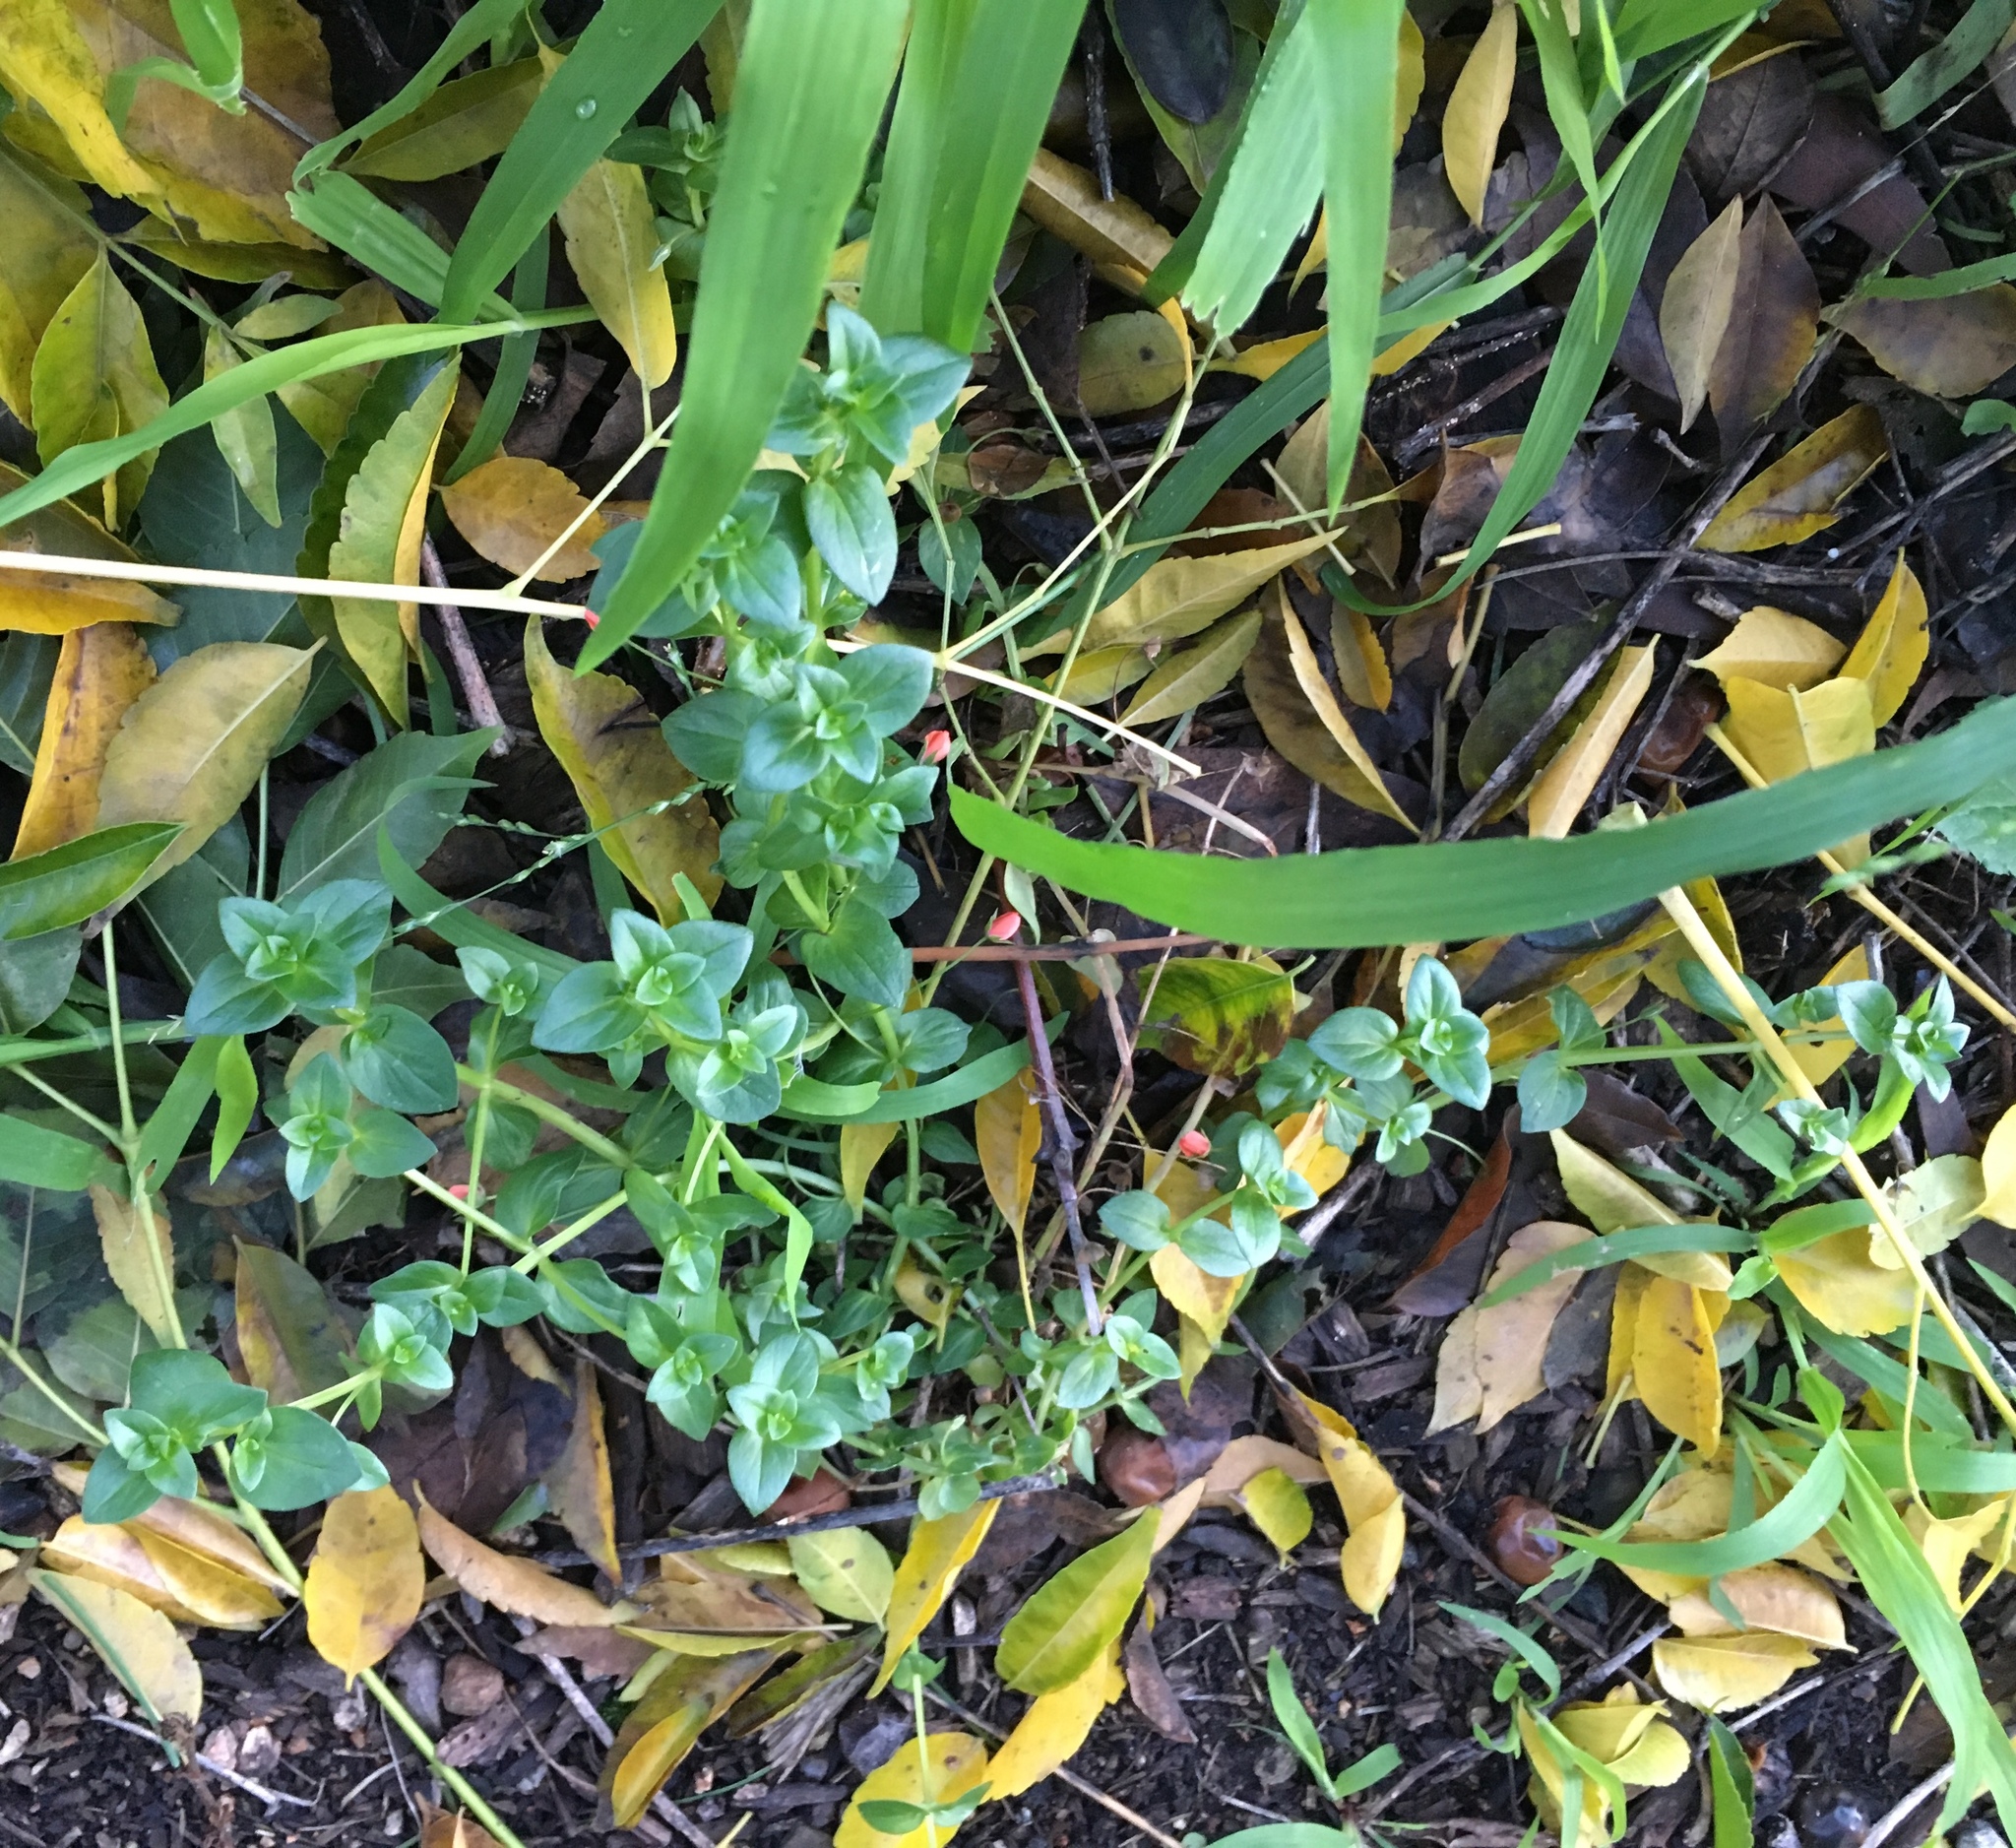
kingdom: Plantae
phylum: Tracheophyta
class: Magnoliopsida
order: Ericales
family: Primulaceae
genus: Lysimachia
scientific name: Lysimachia arvensis
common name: Scarlet pimpernel
